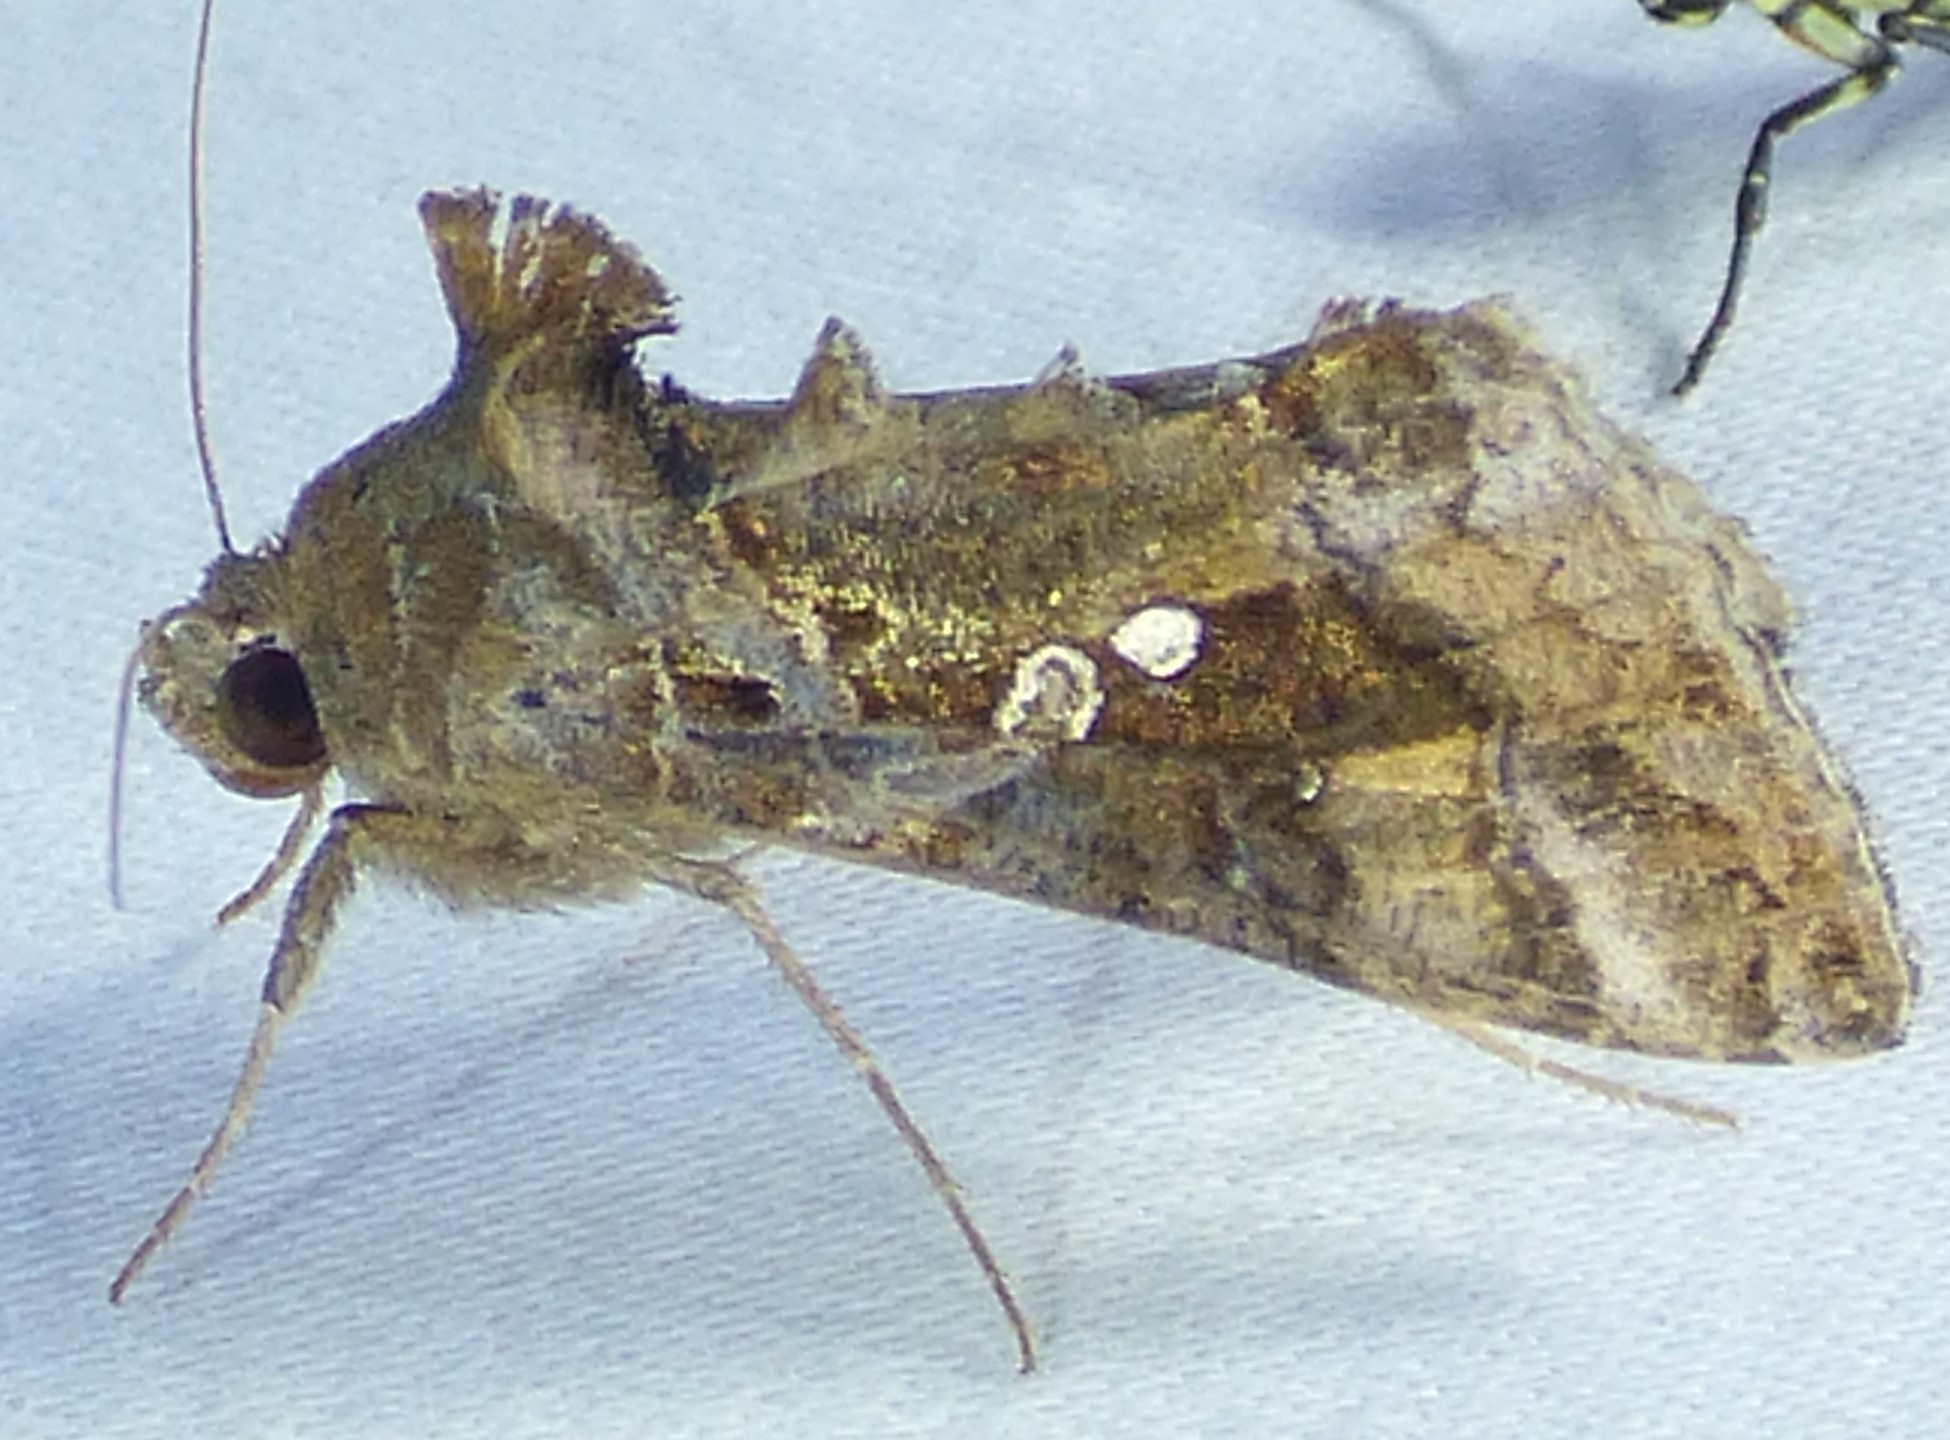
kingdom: Animalia
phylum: Arthropoda
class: Insecta
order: Lepidoptera
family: Noctuidae
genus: Chrysodeixis
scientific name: Chrysodeixis includens
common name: Cutworm moth
